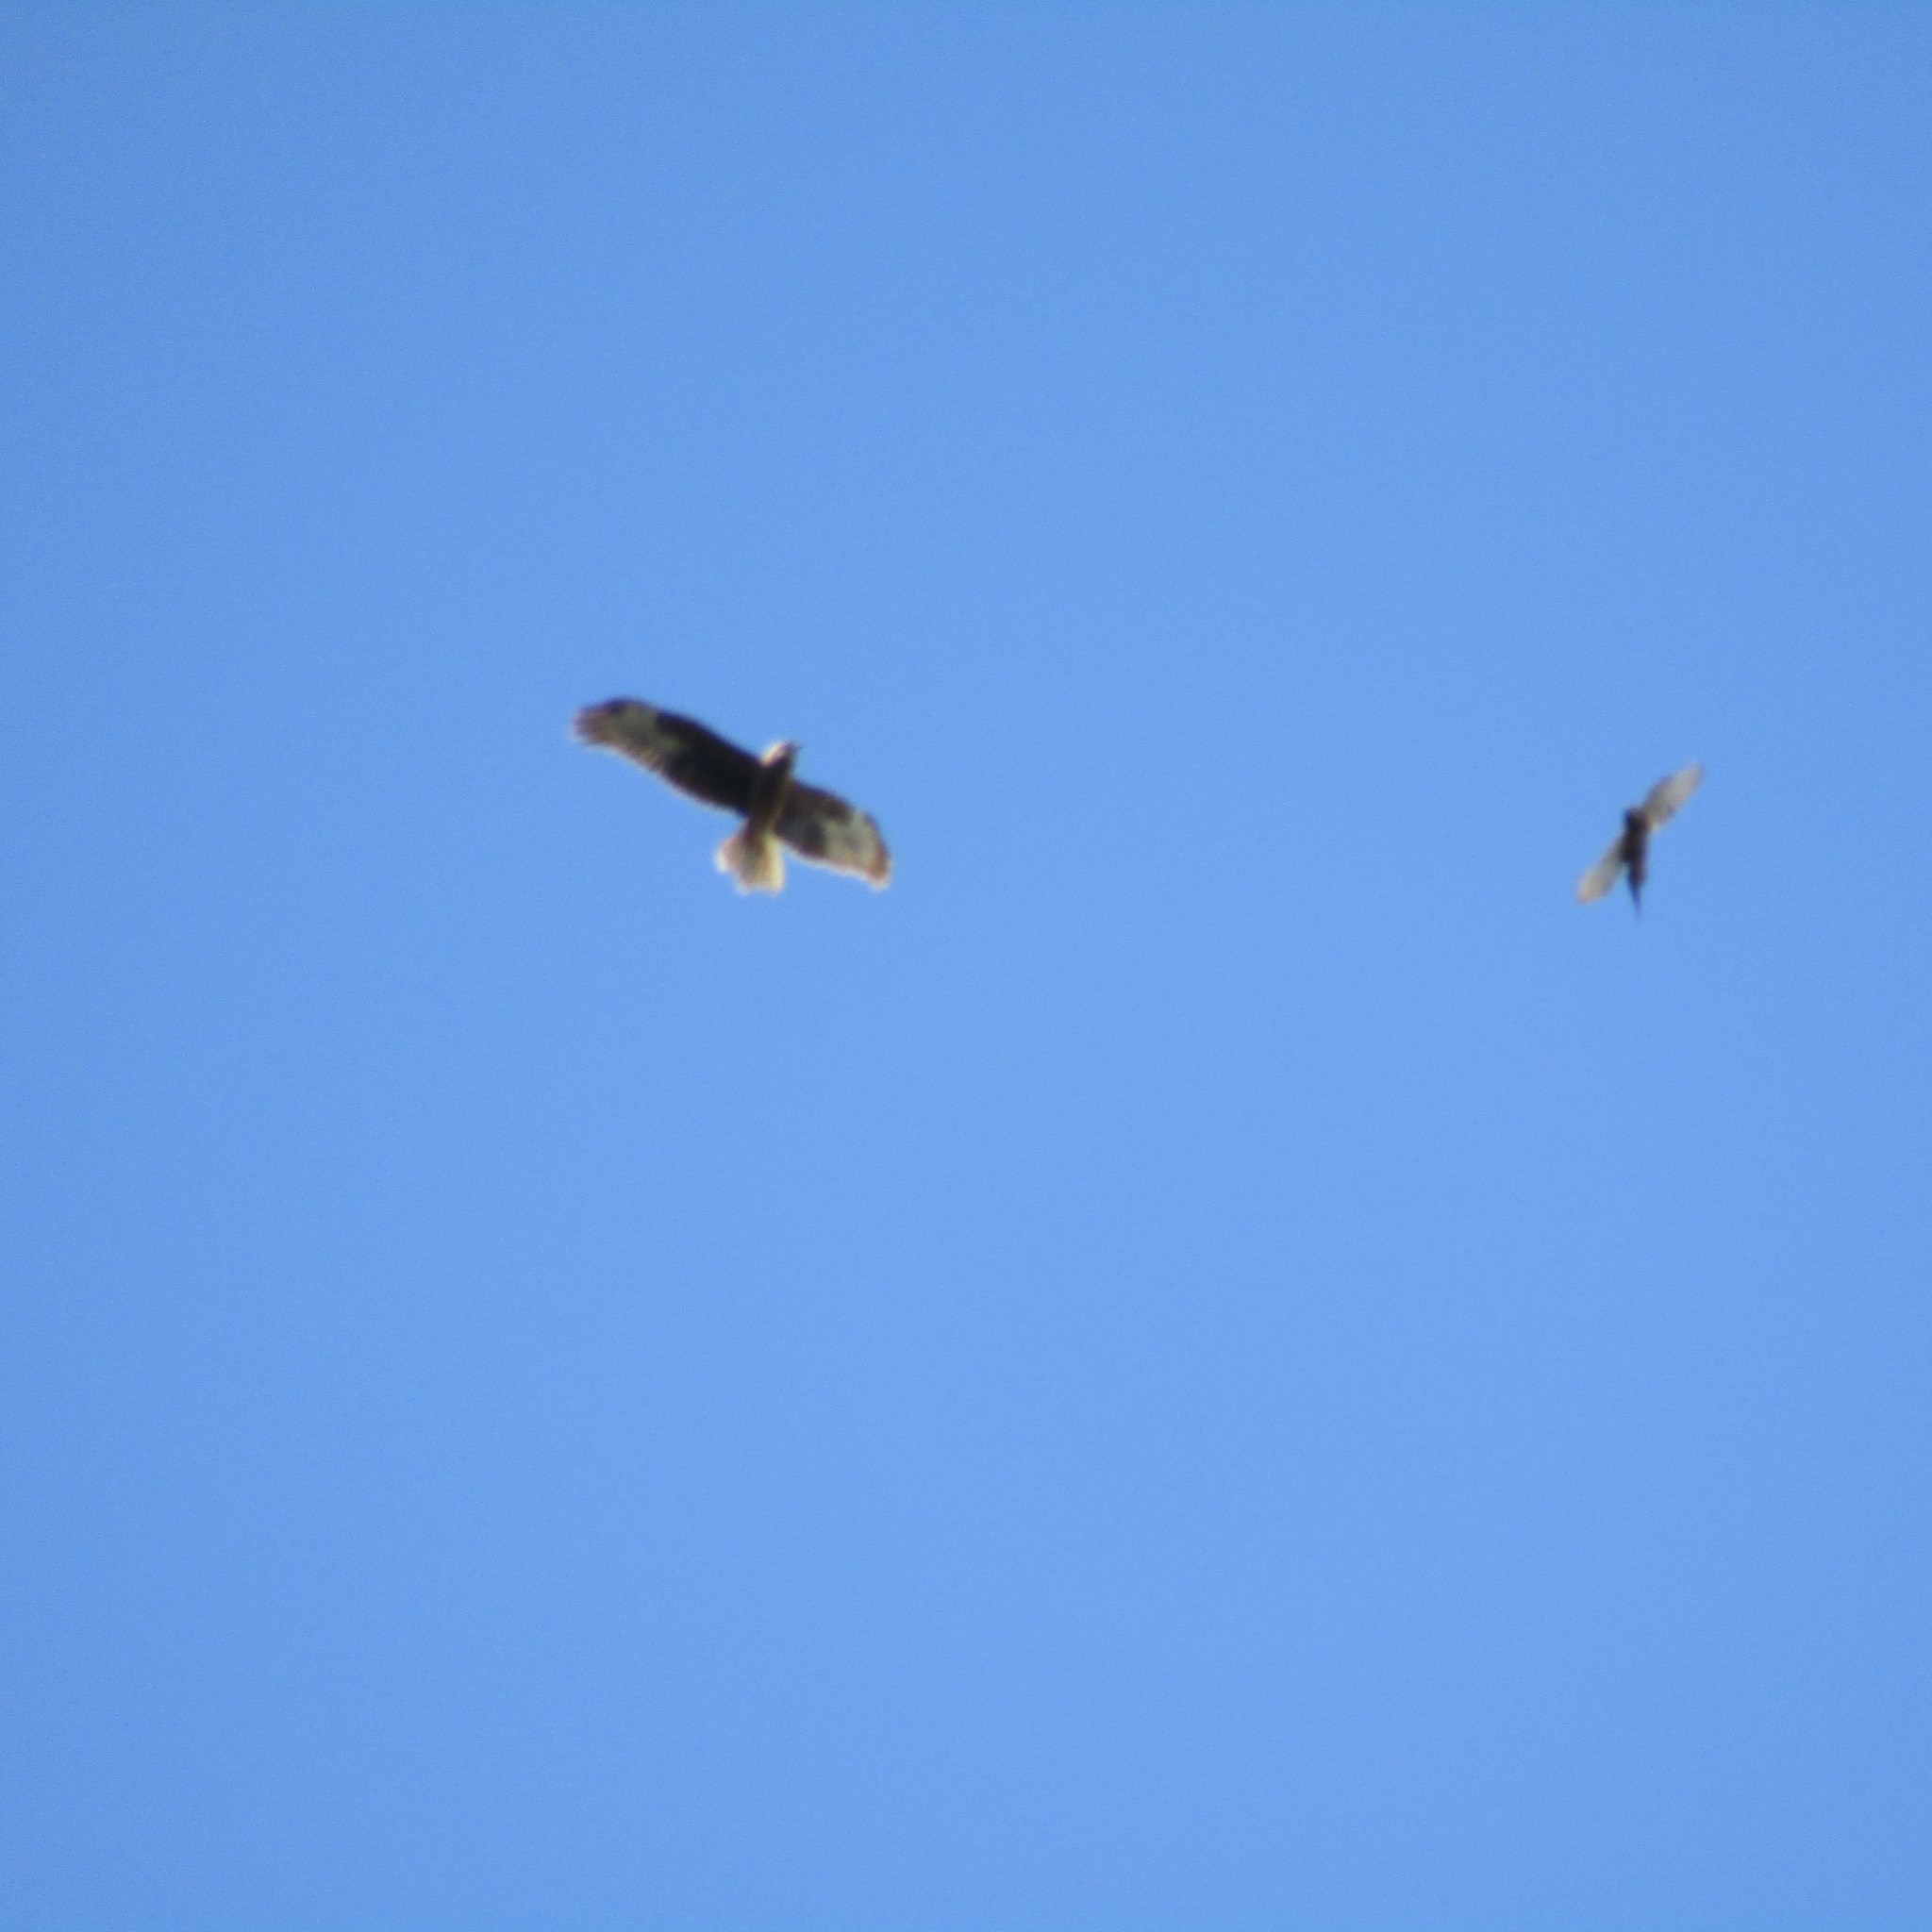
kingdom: Animalia
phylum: Chordata
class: Aves
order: Accipitriformes
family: Accipitridae
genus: Circus
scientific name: Circus approximans
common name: Swamp harrier
